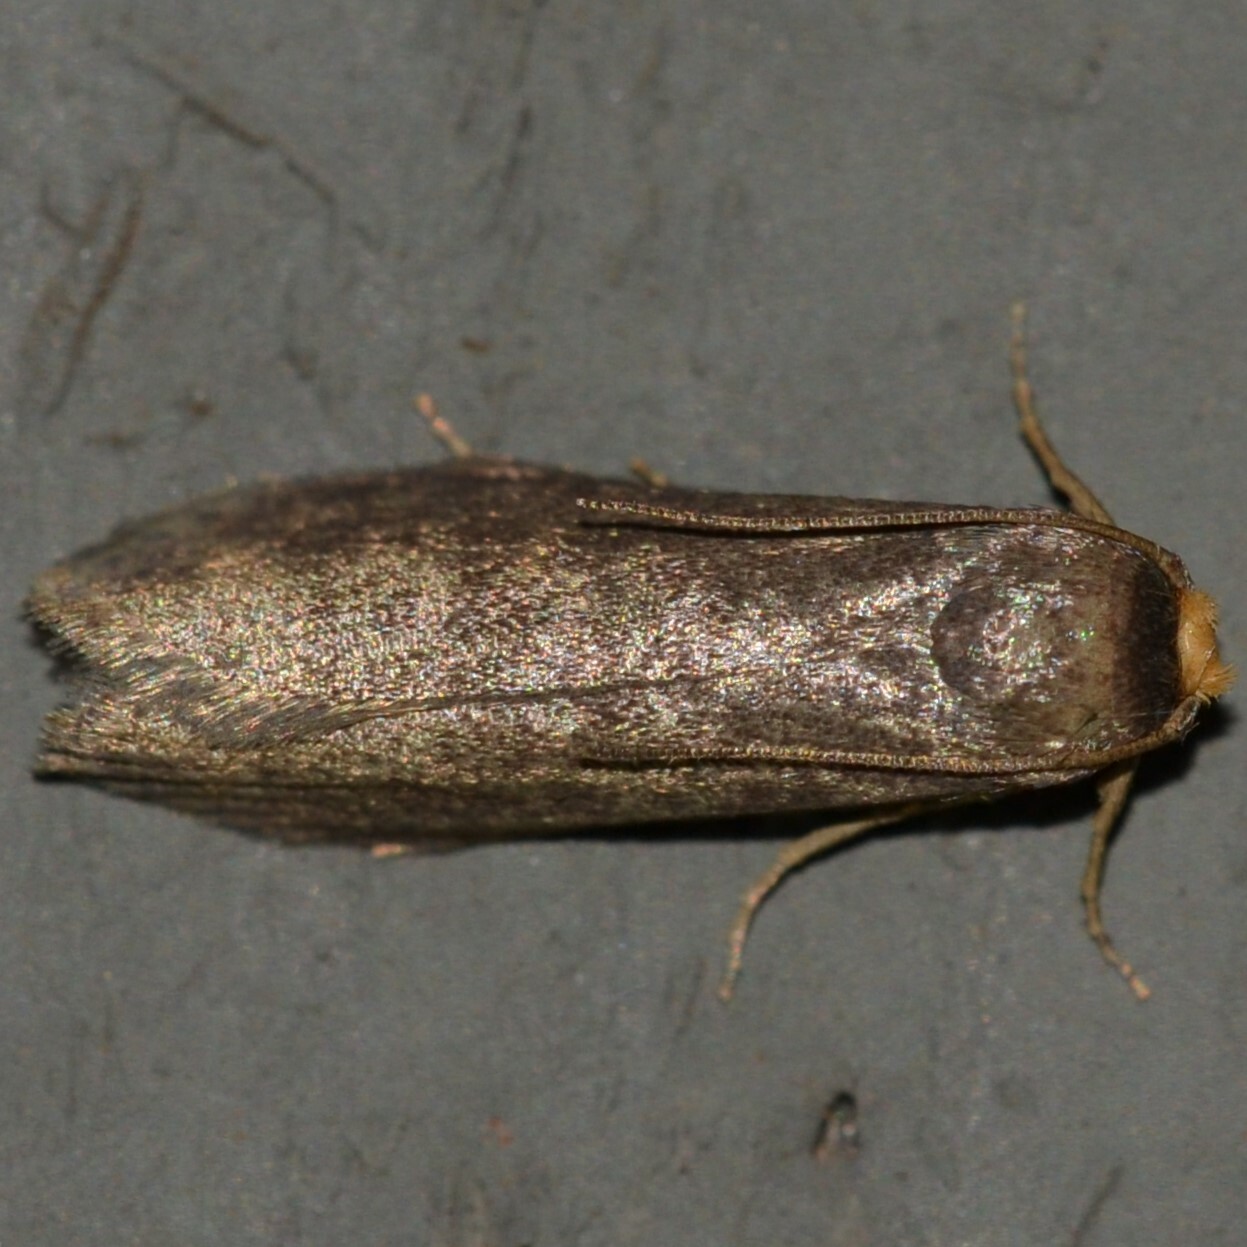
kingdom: Animalia
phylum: Arthropoda
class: Insecta
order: Lepidoptera
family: Pyralidae
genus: Achroia
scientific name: Achroia grisella
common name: Lesser wax moth
